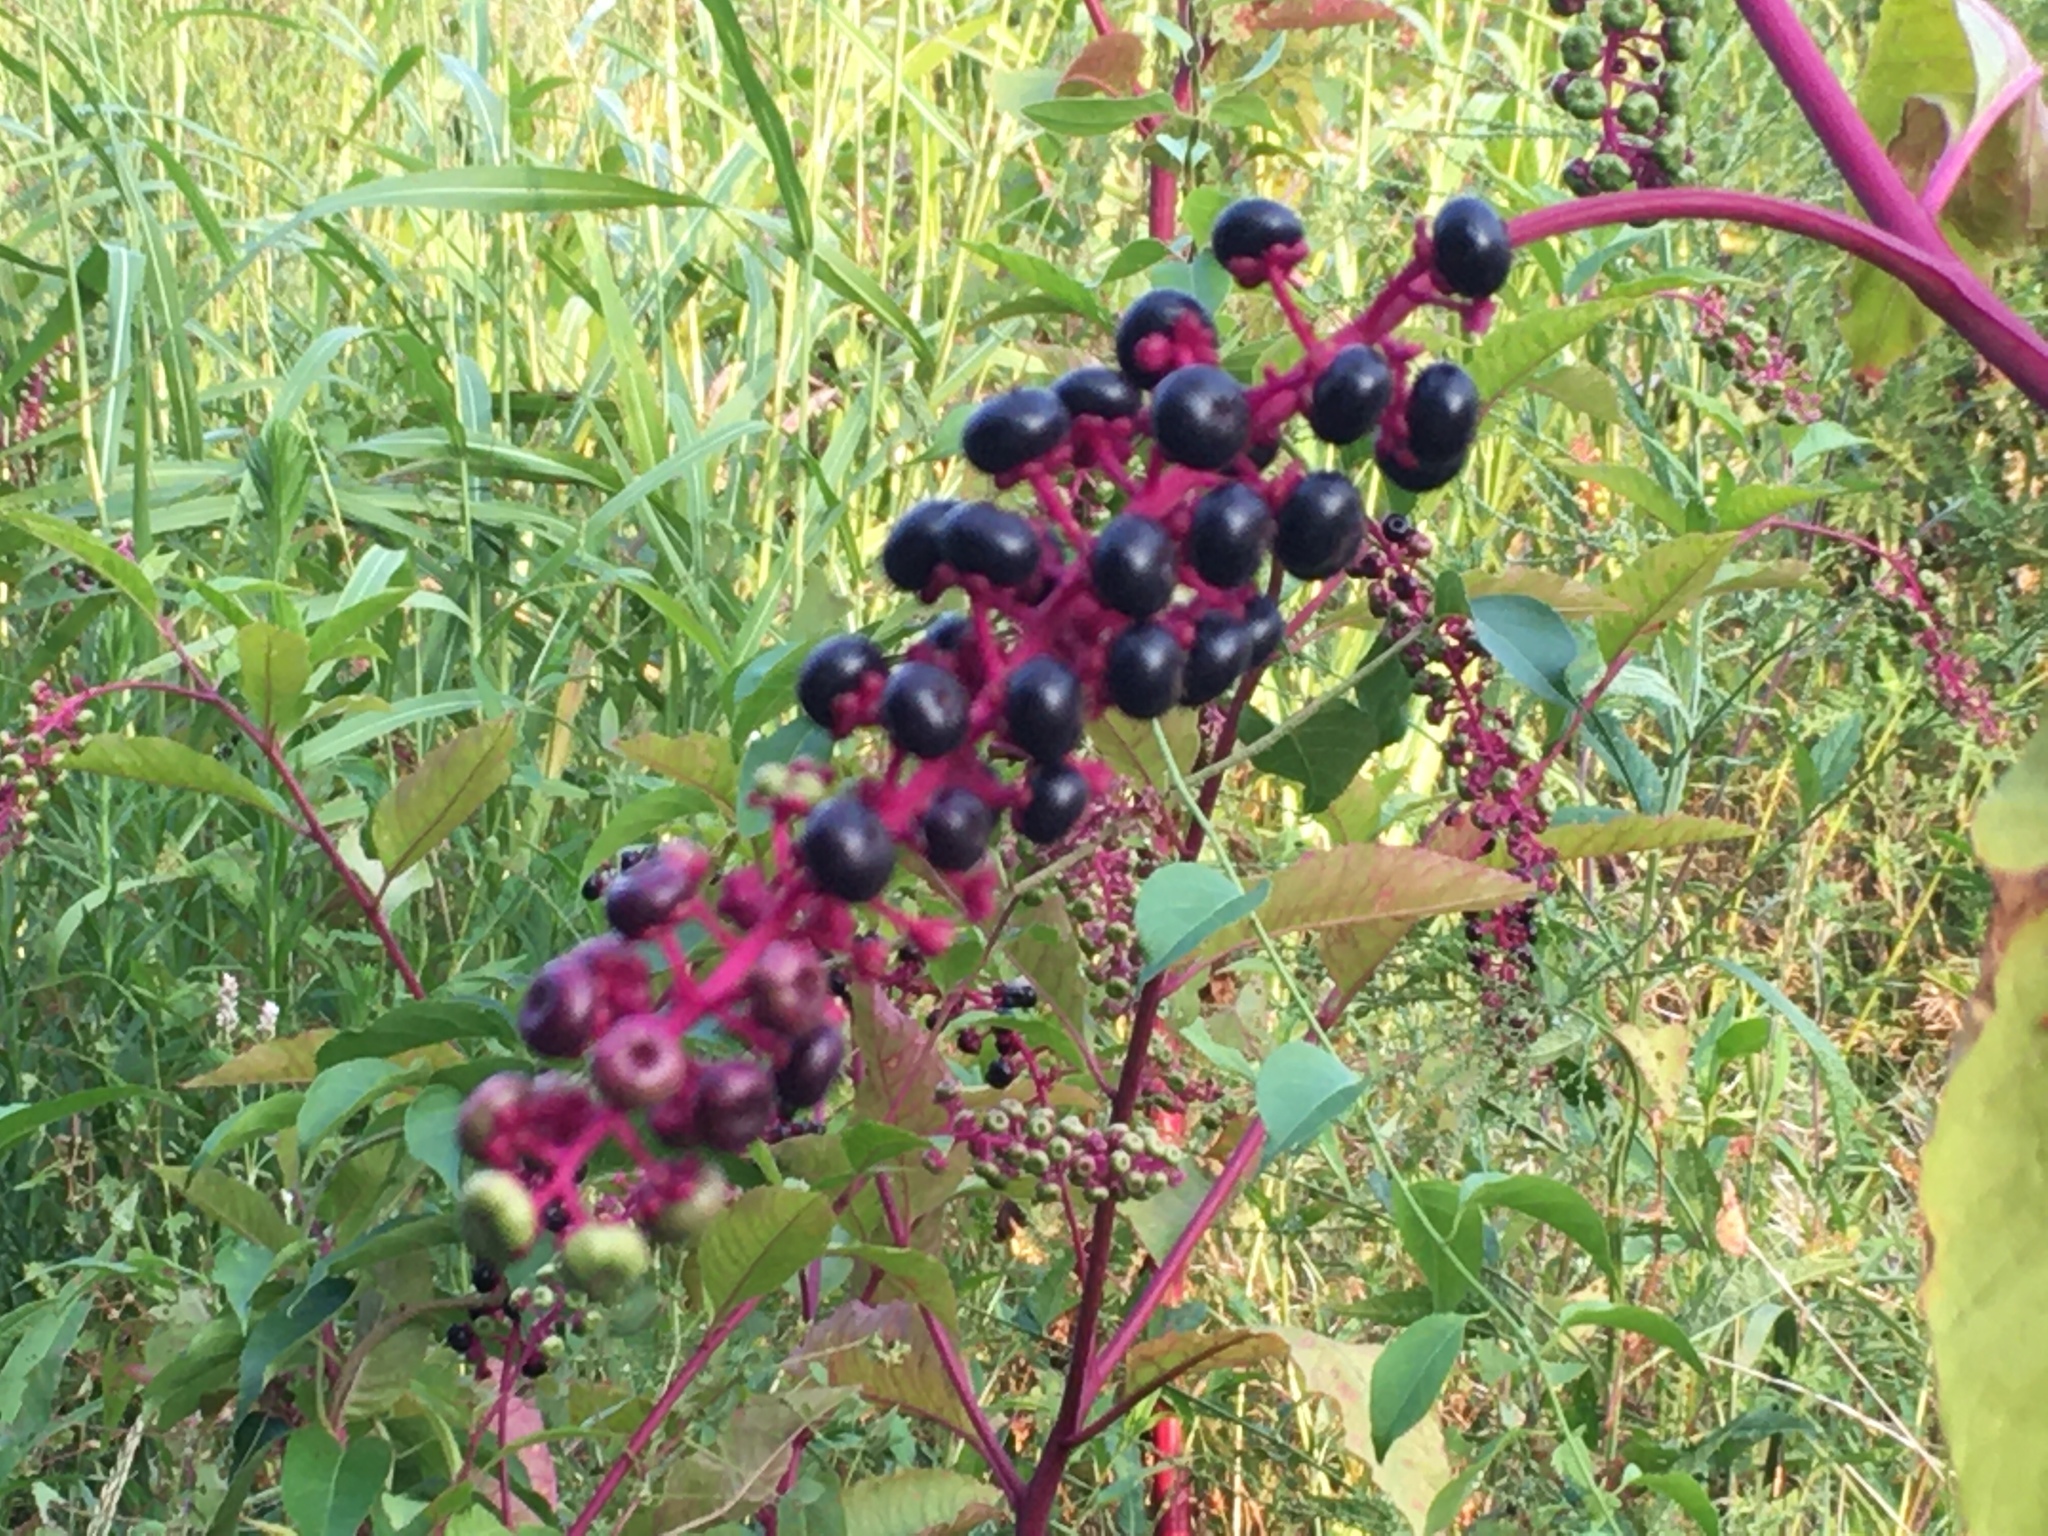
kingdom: Plantae
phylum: Tracheophyta
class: Magnoliopsida
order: Caryophyllales
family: Phytolaccaceae
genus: Phytolacca
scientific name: Phytolacca americana
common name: American pokeweed
